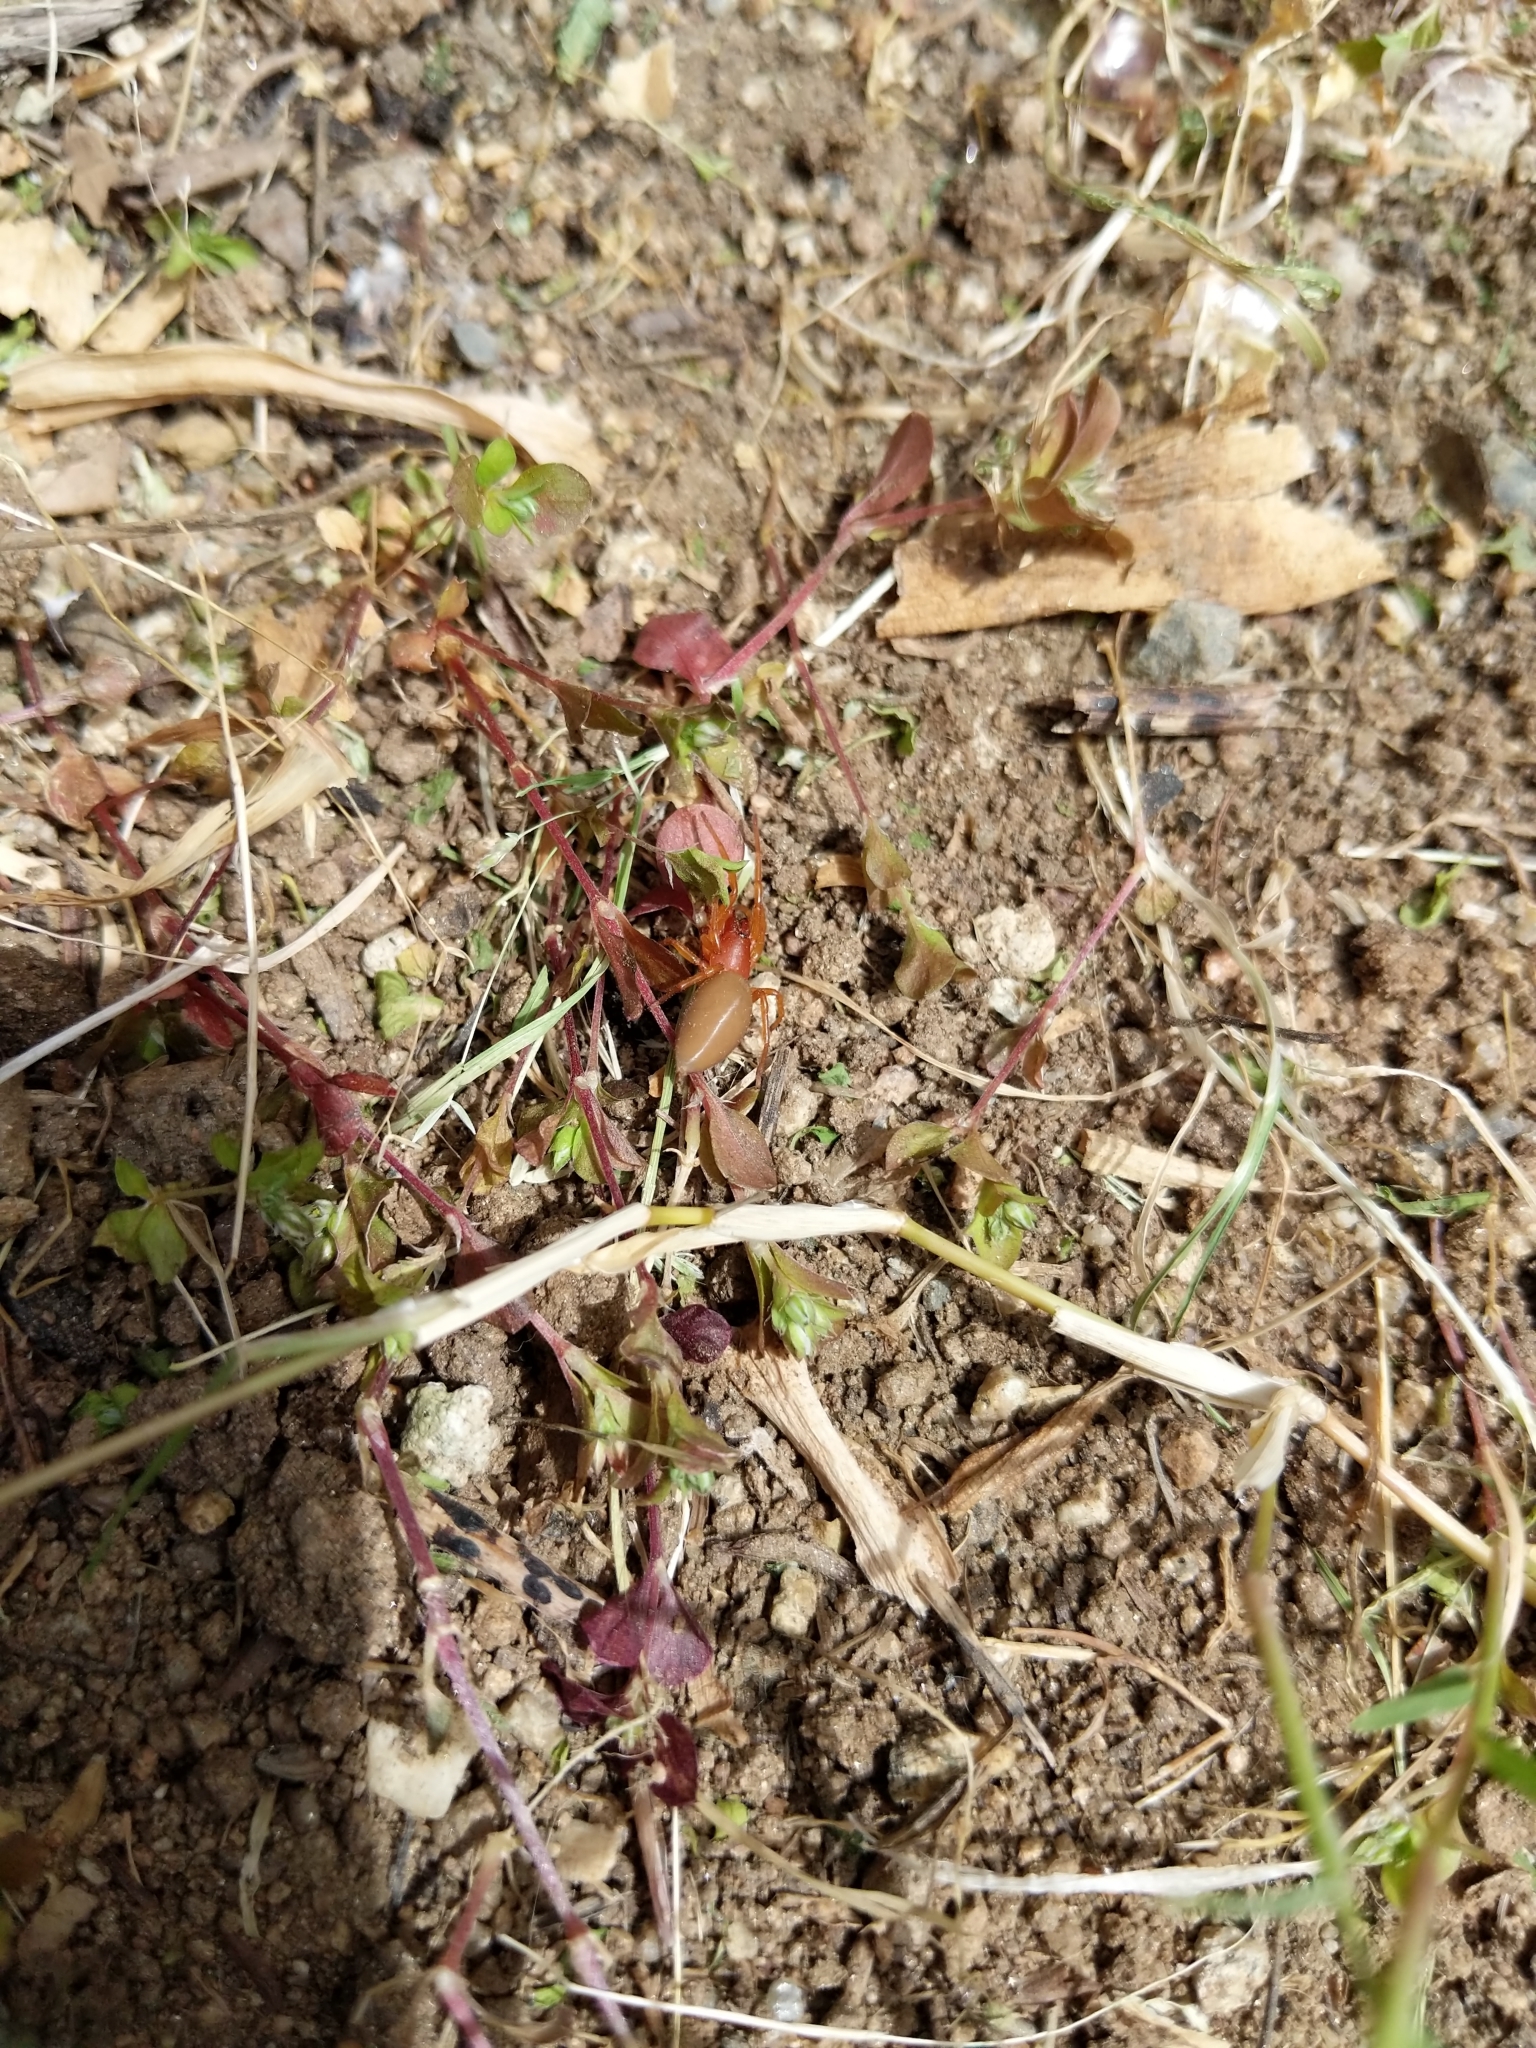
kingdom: Animalia
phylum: Arthropoda
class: Arachnida
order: Araneae
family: Dysderidae
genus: Dysdera
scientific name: Dysdera crocata
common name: Woodlouse spider
